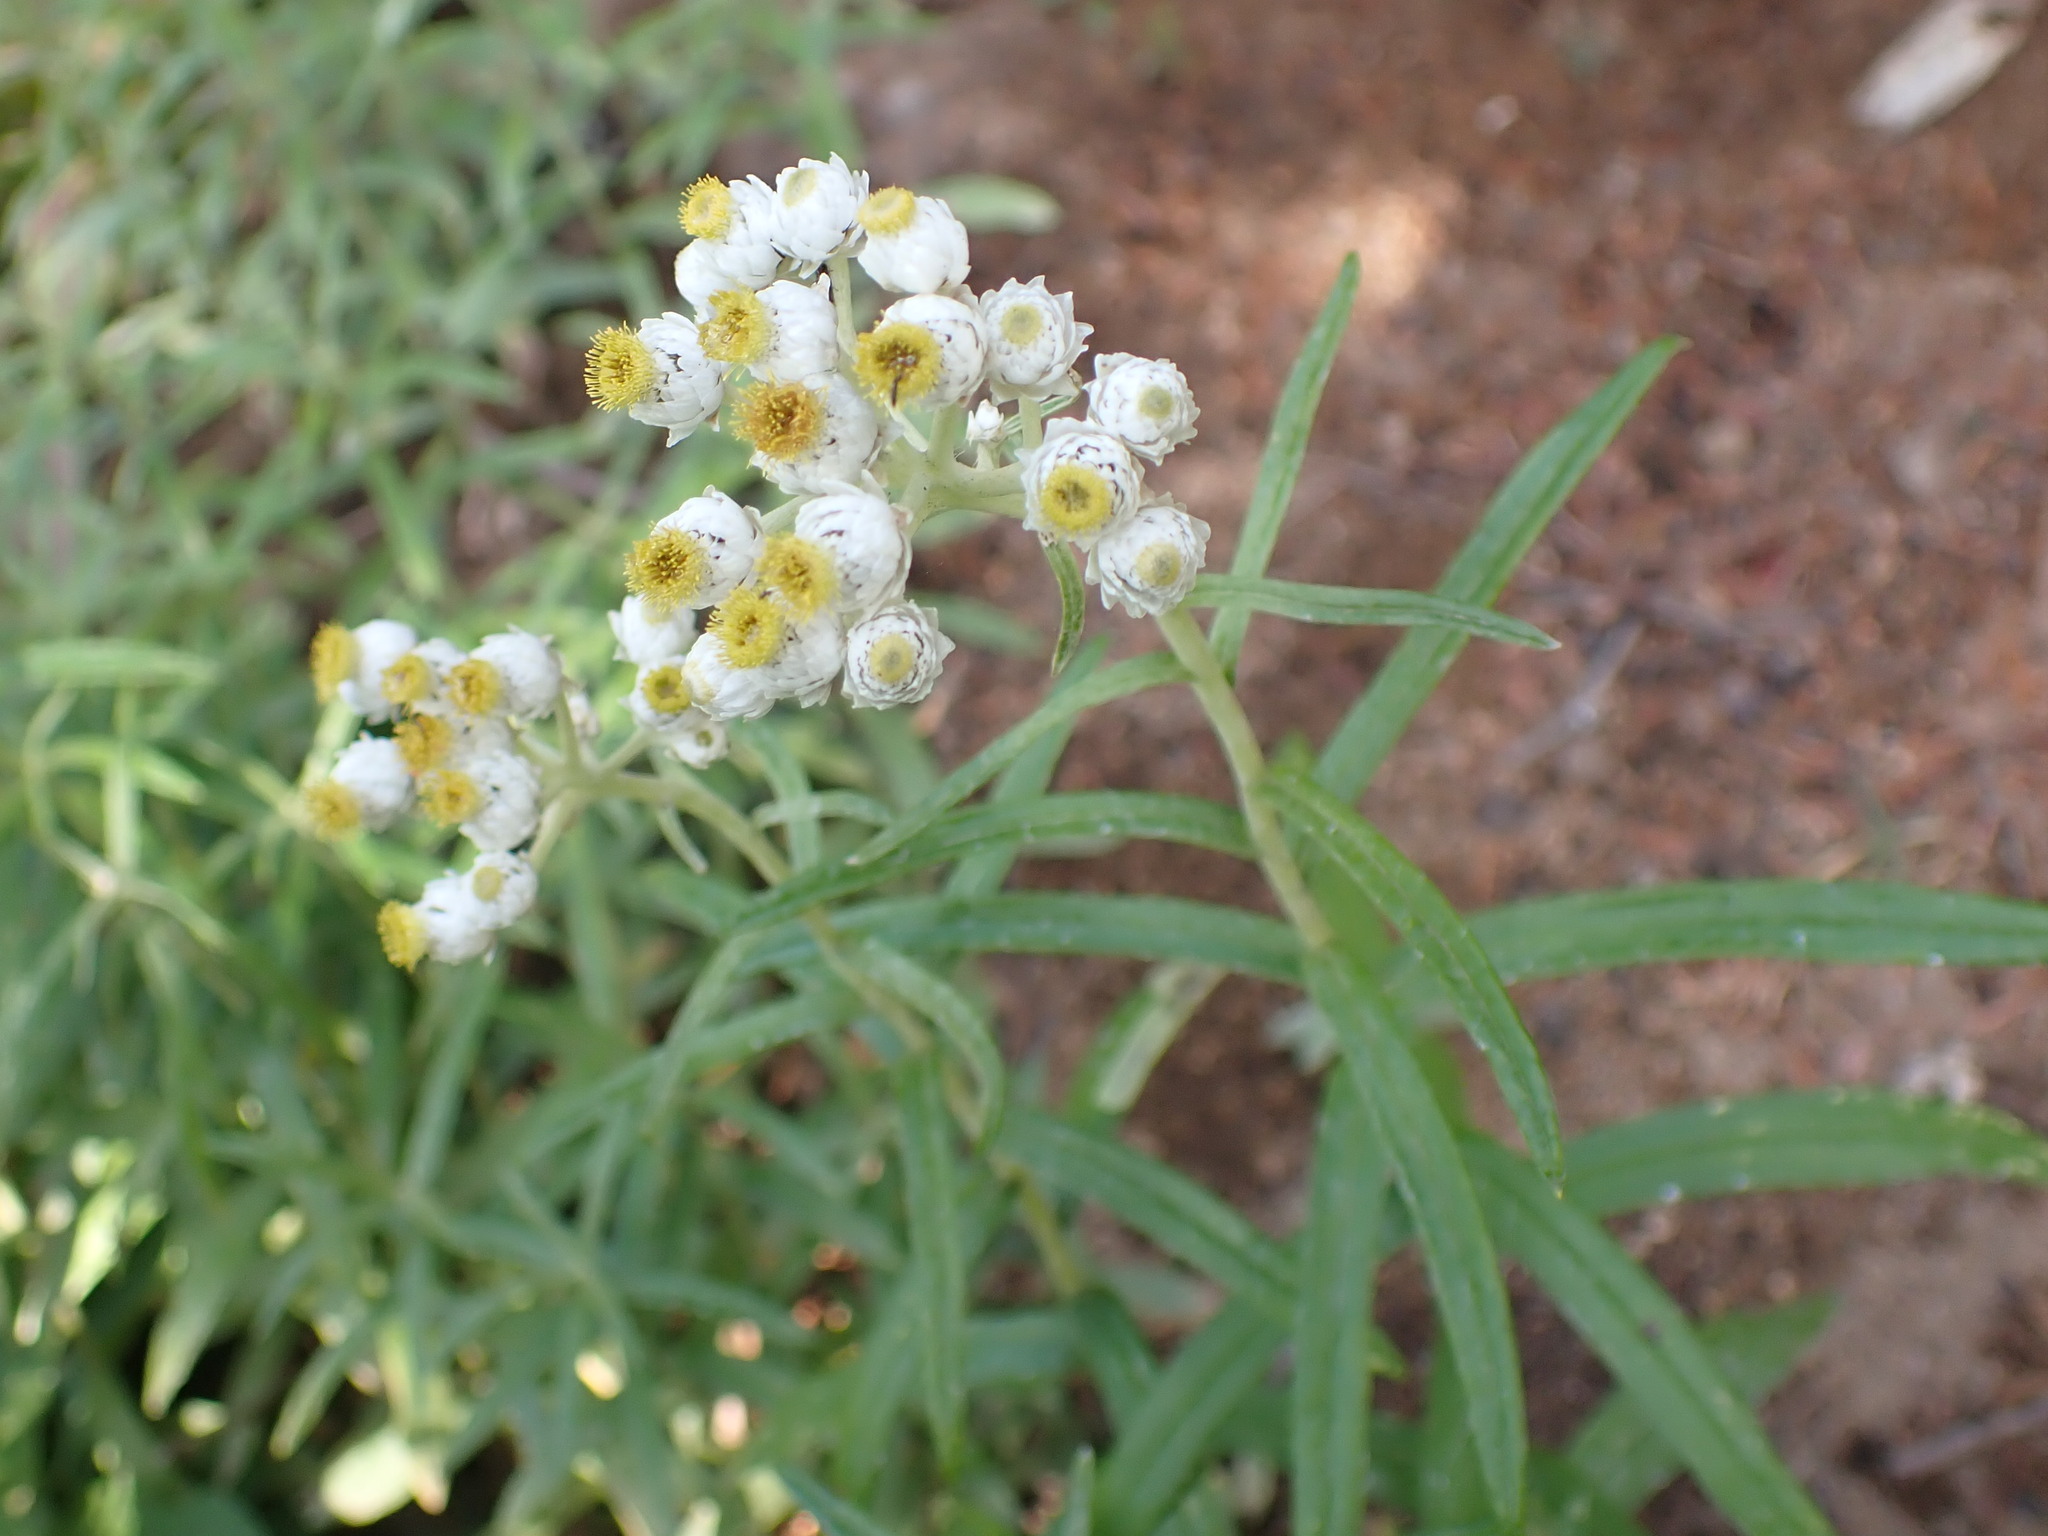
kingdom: Plantae
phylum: Tracheophyta
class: Magnoliopsida
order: Asterales
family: Asteraceae
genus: Anaphalis
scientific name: Anaphalis margaritacea
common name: Pearly everlasting
